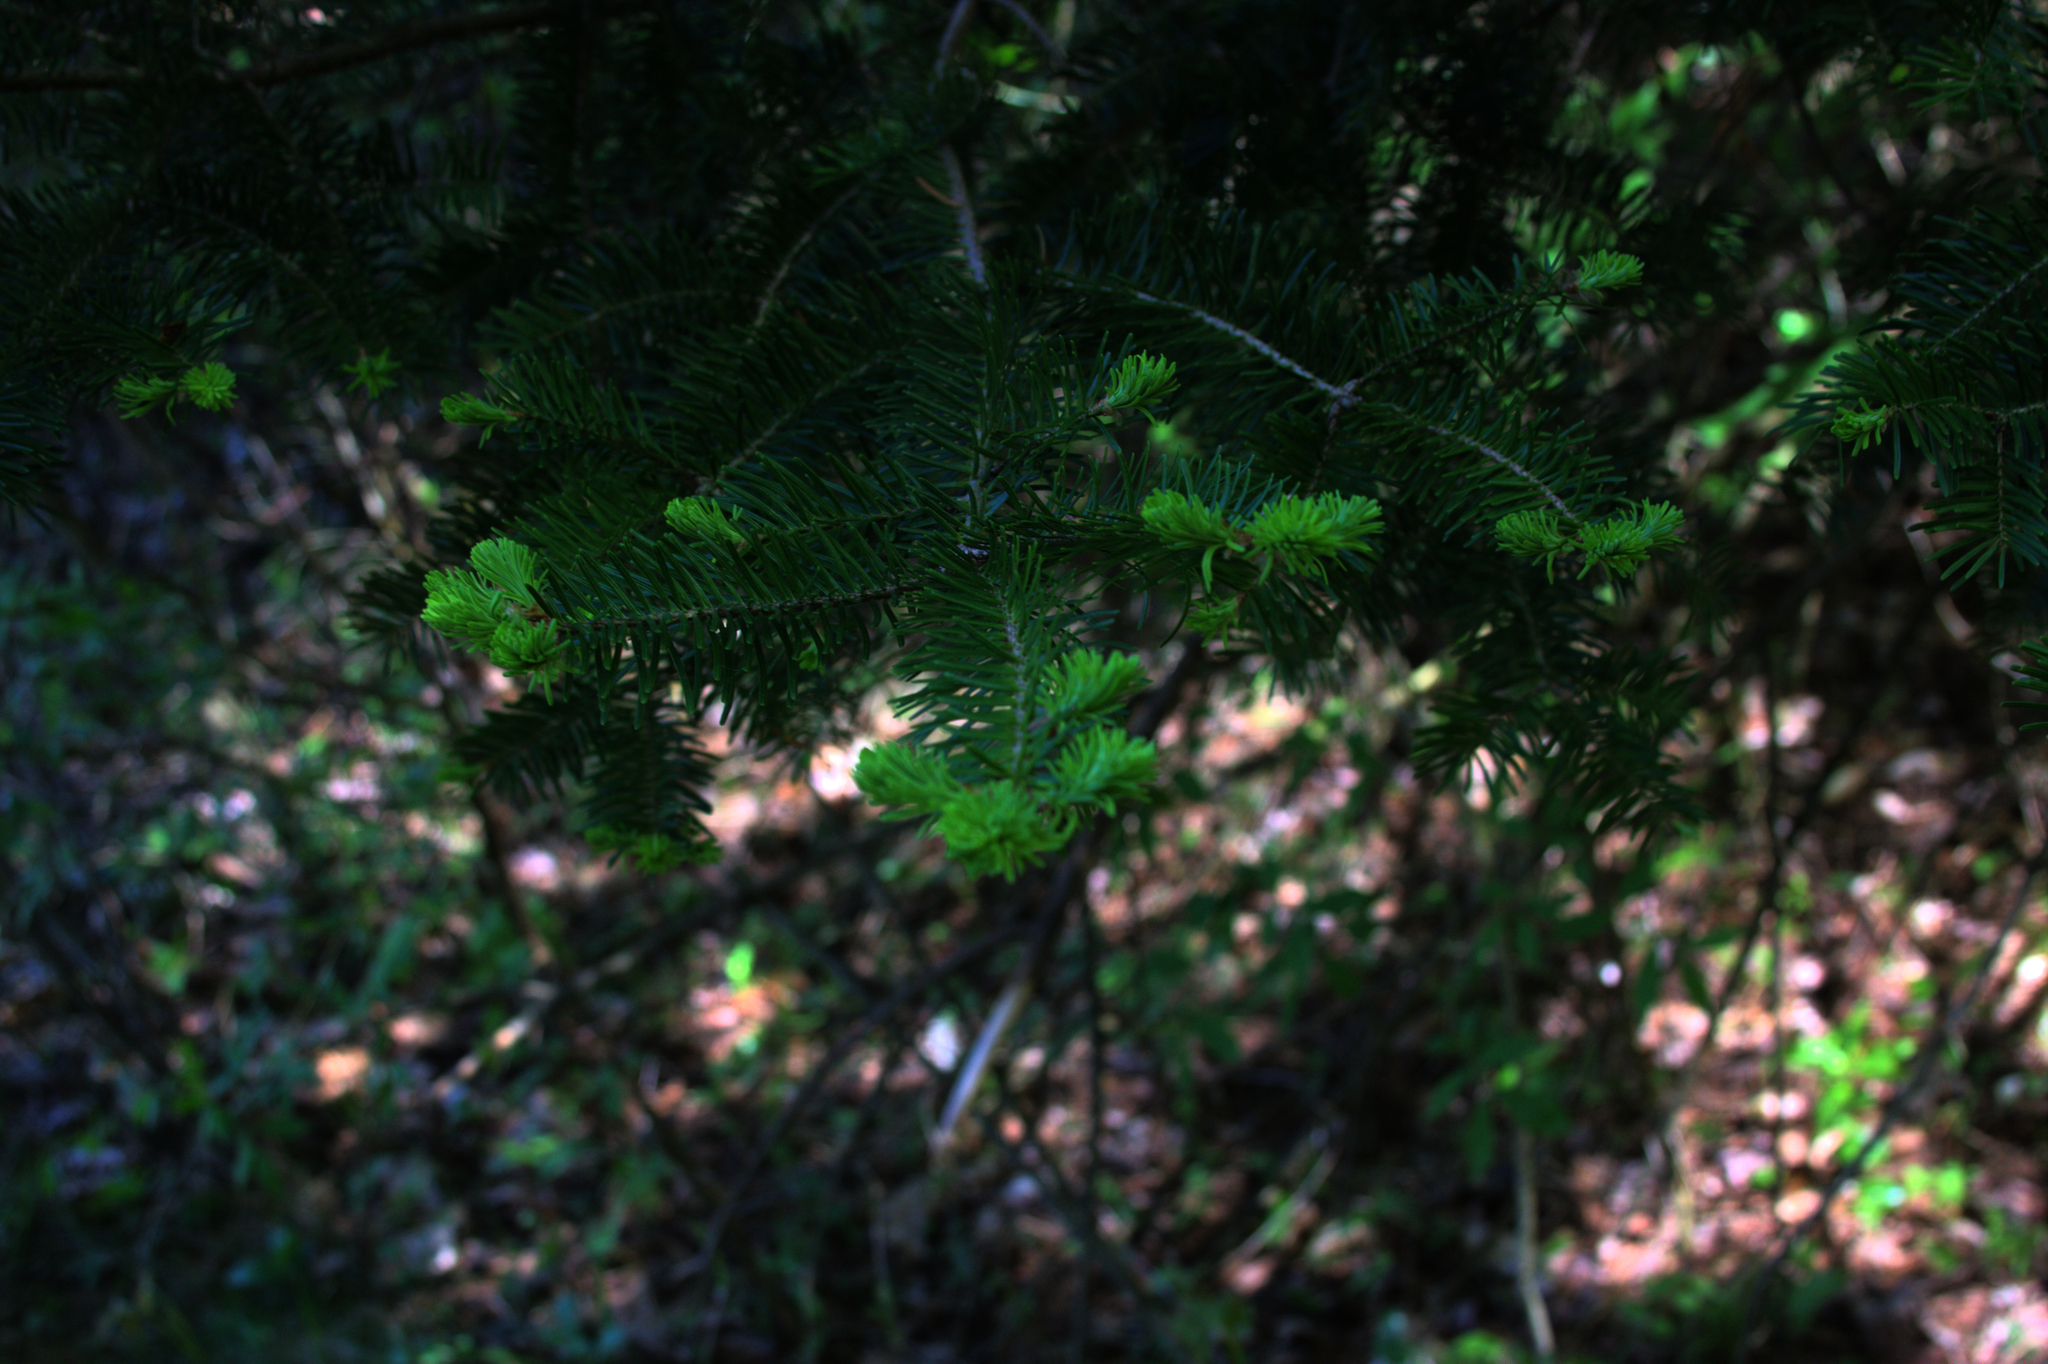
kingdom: Plantae
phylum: Tracheophyta
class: Pinopsida
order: Pinales
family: Pinaceae
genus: Abies
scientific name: Abies balsamea
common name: Balsam fir
